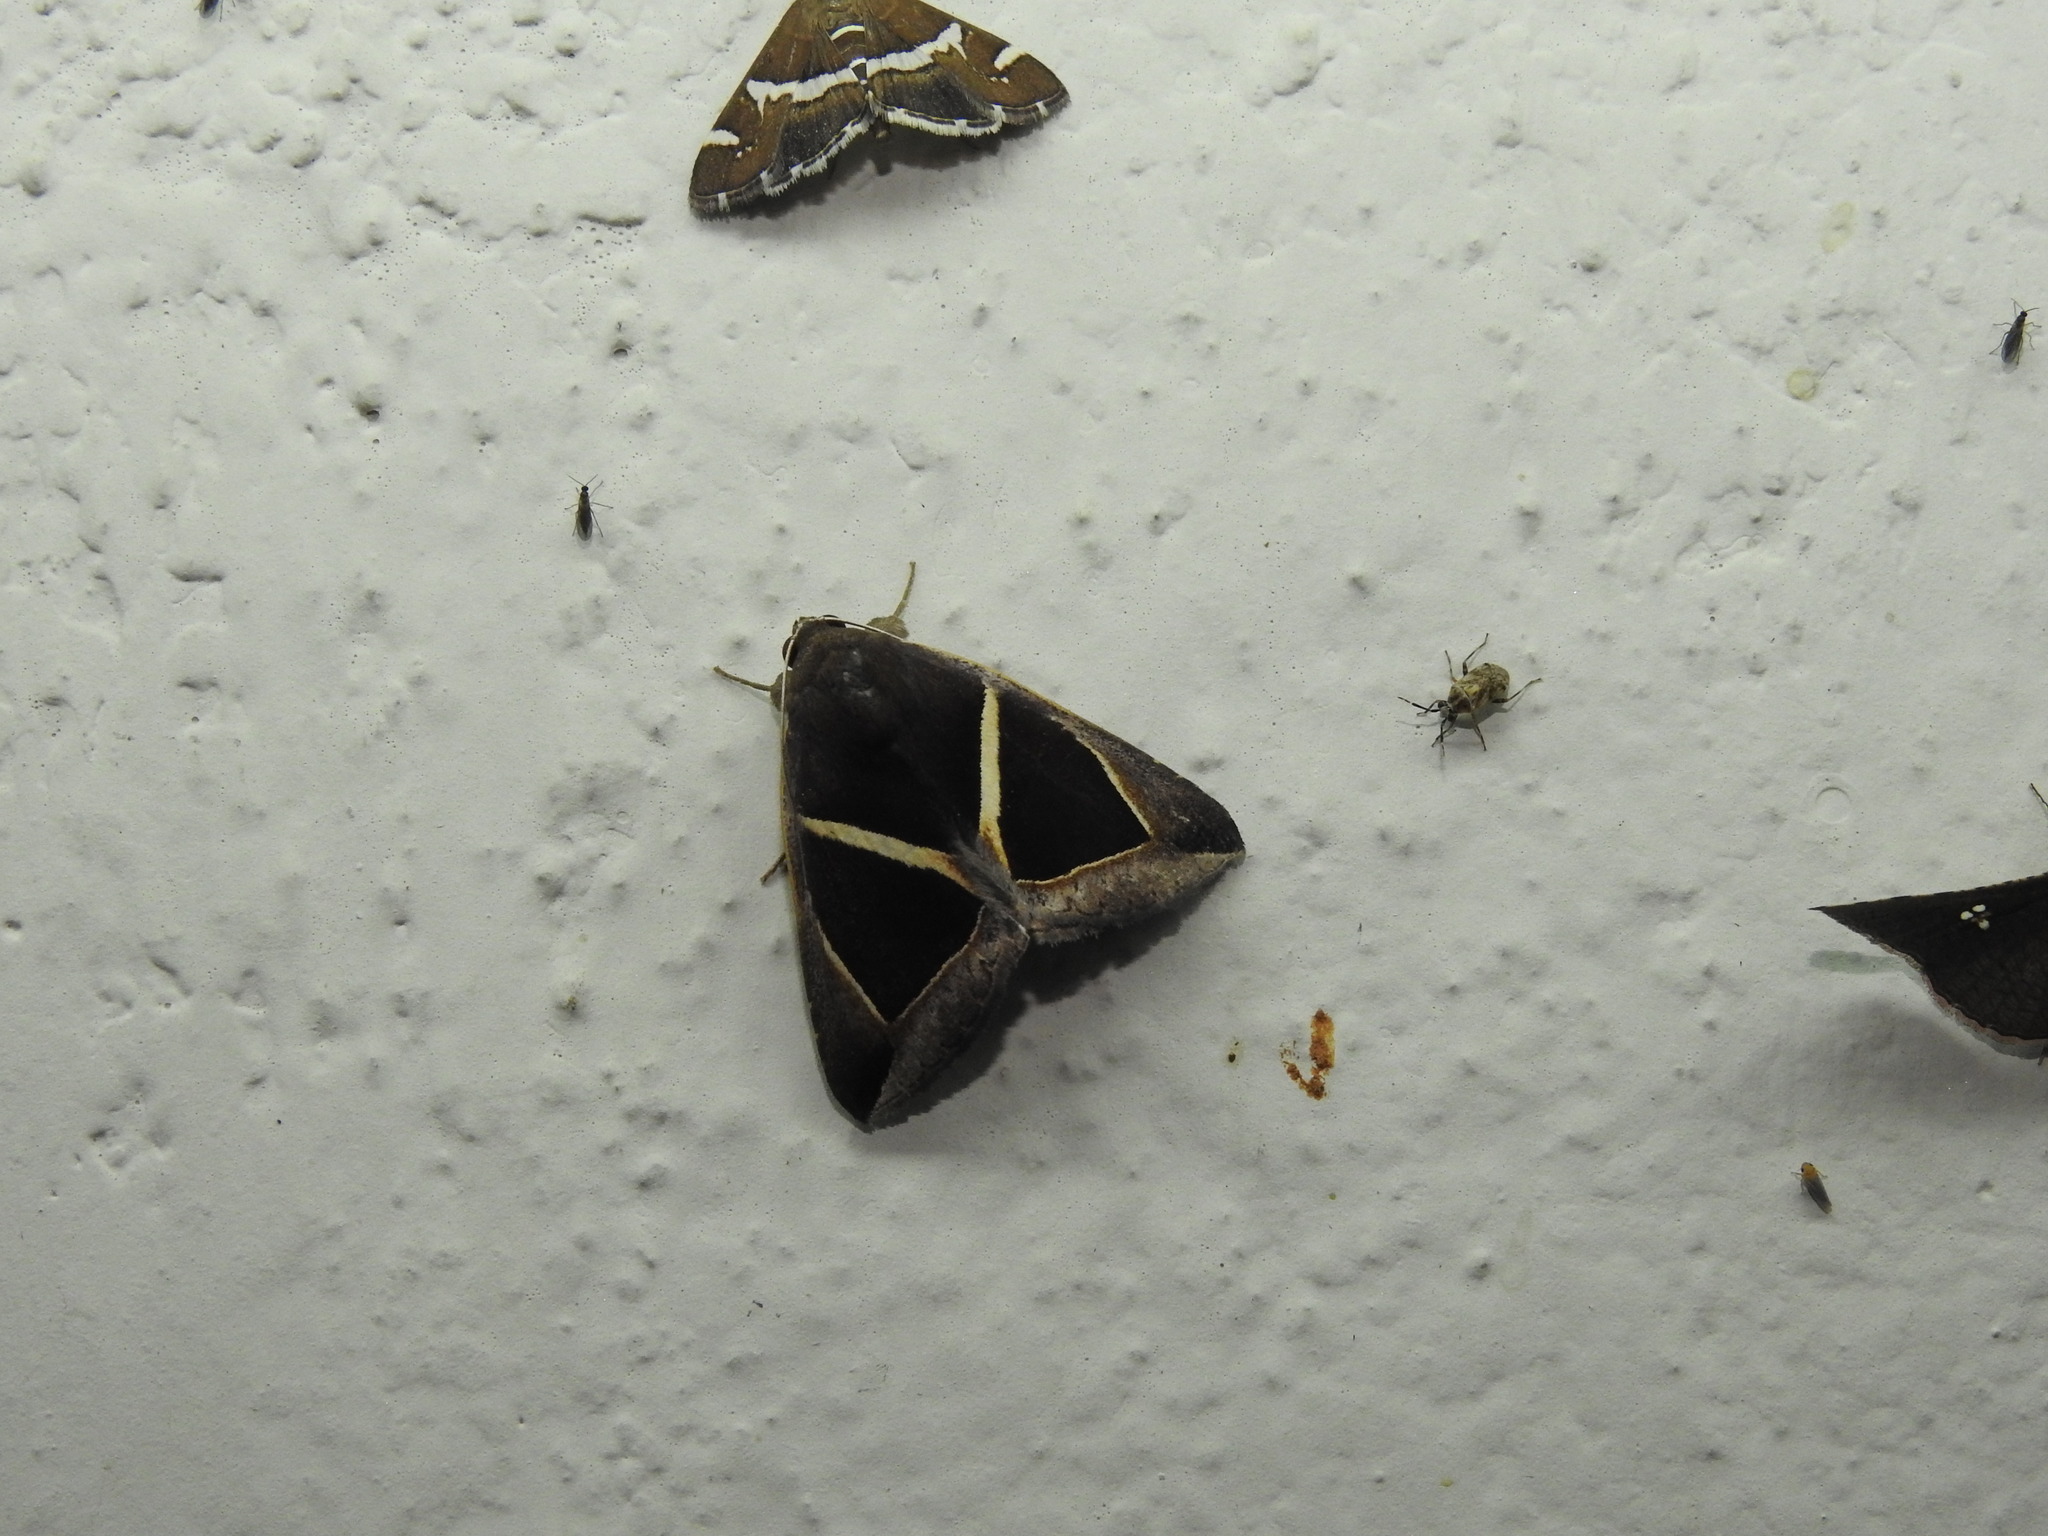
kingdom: Animalia
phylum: Arthropoda
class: Insecta
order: Lepidoptera
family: Erebidae
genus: Chalciope
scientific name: Chalciope mygdon
